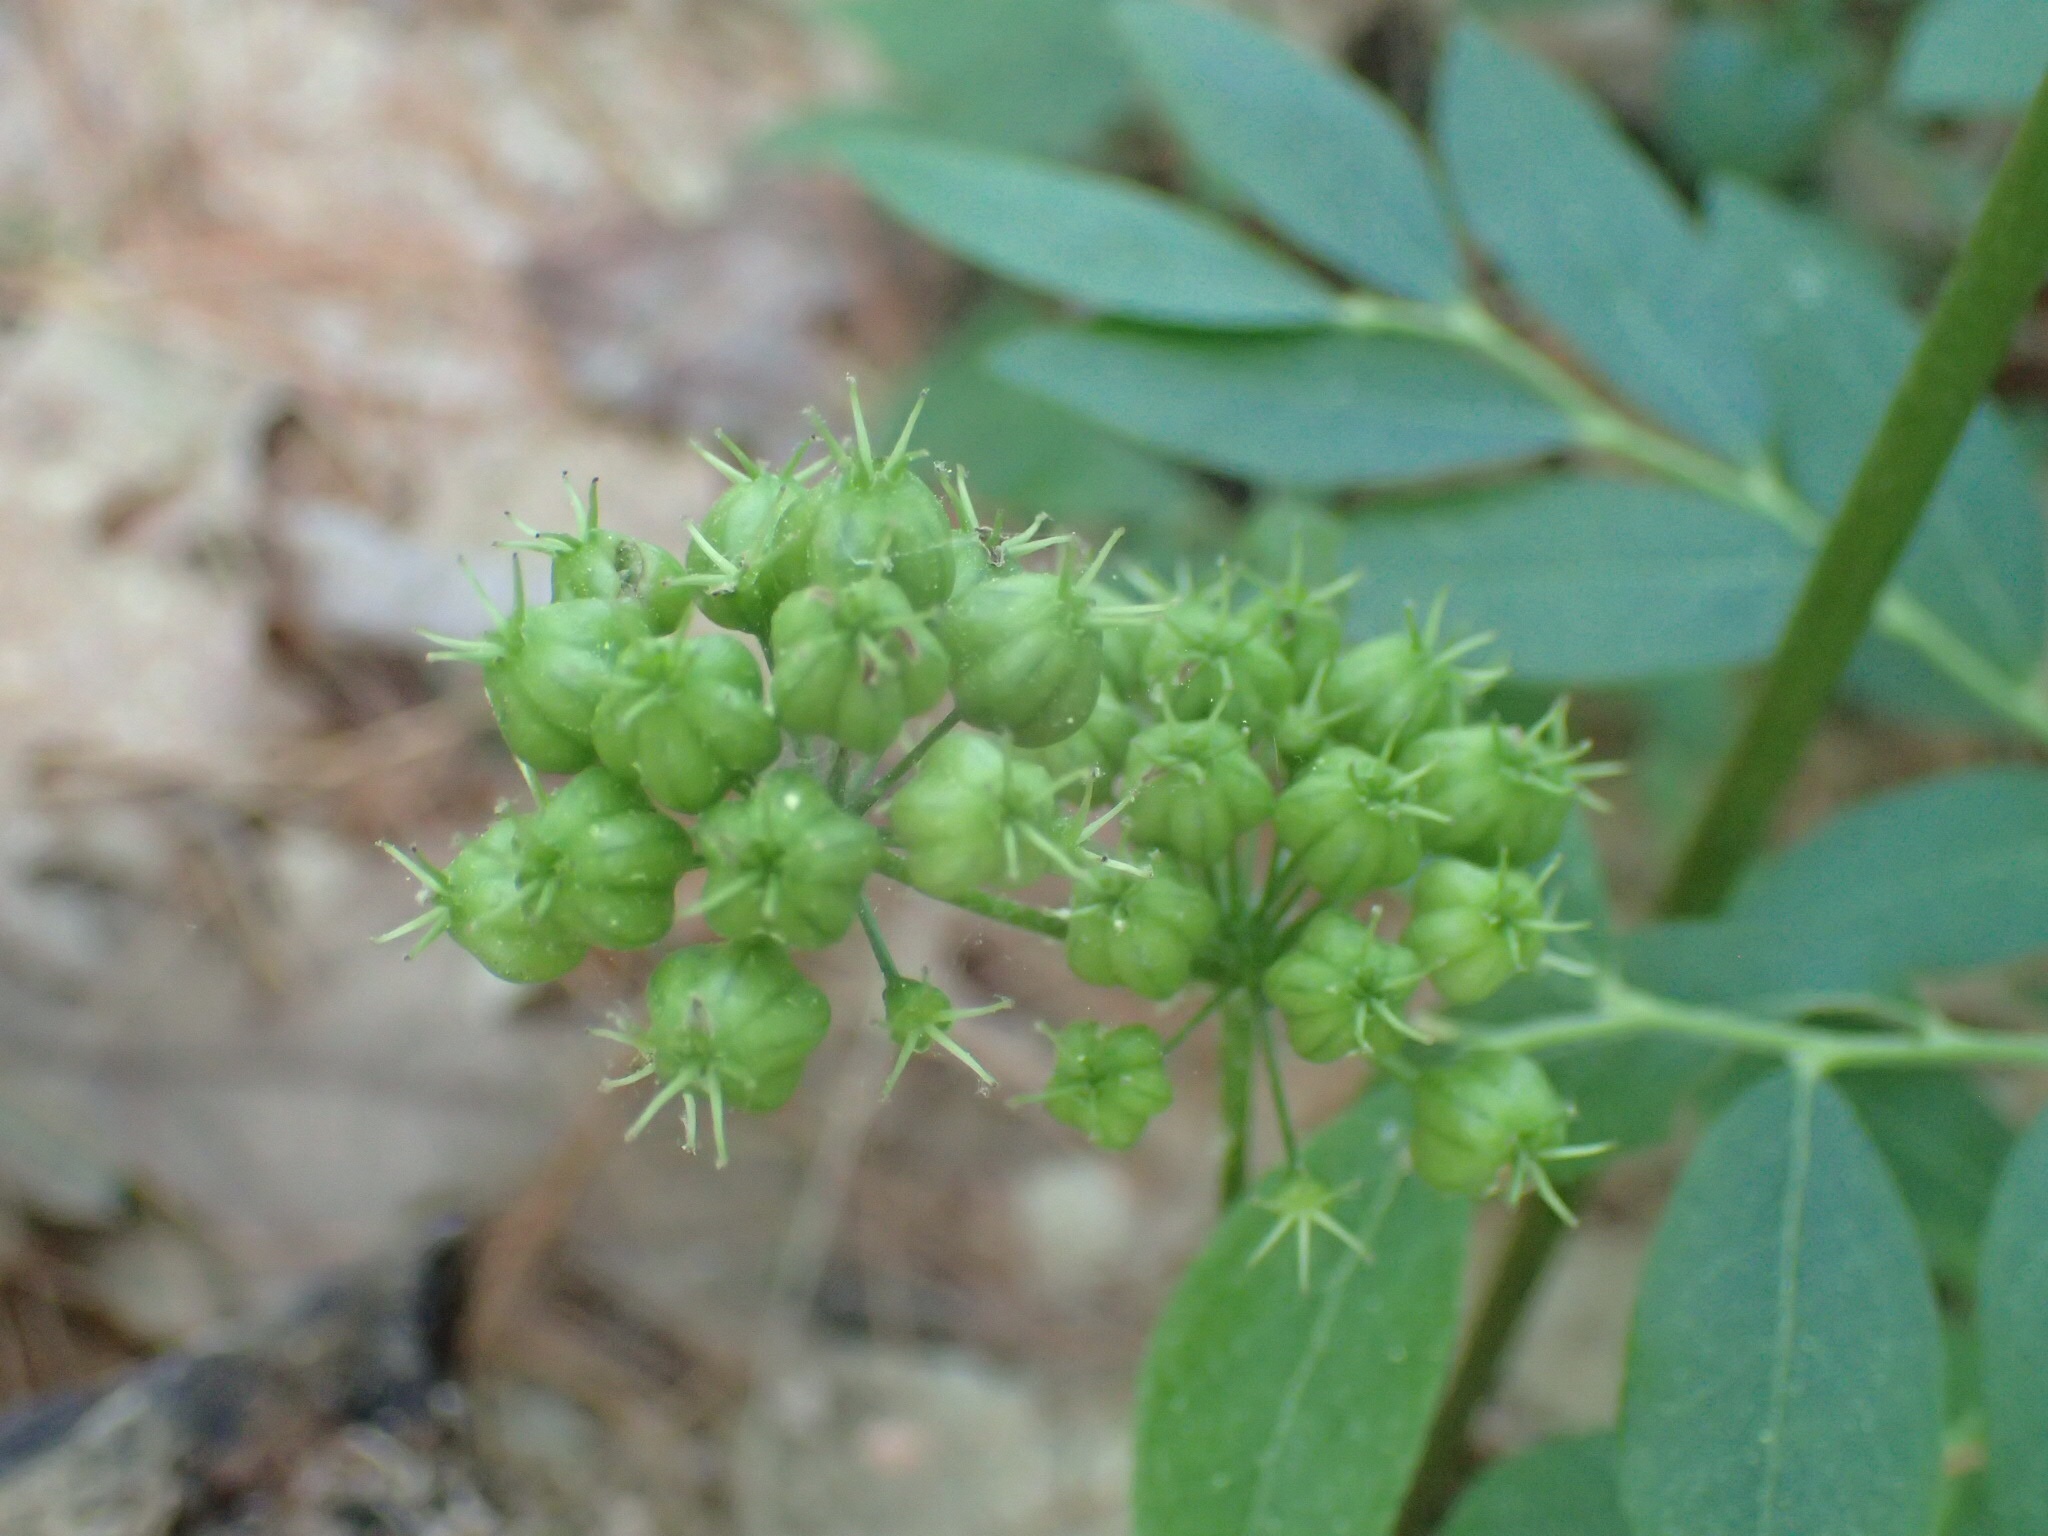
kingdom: Plantae
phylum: Tracheophyta
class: Magnoliopsida
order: Apiales
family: Araliaceae
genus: Aralia
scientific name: Aralia nudicaulis
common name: Wild sarsaparilla
